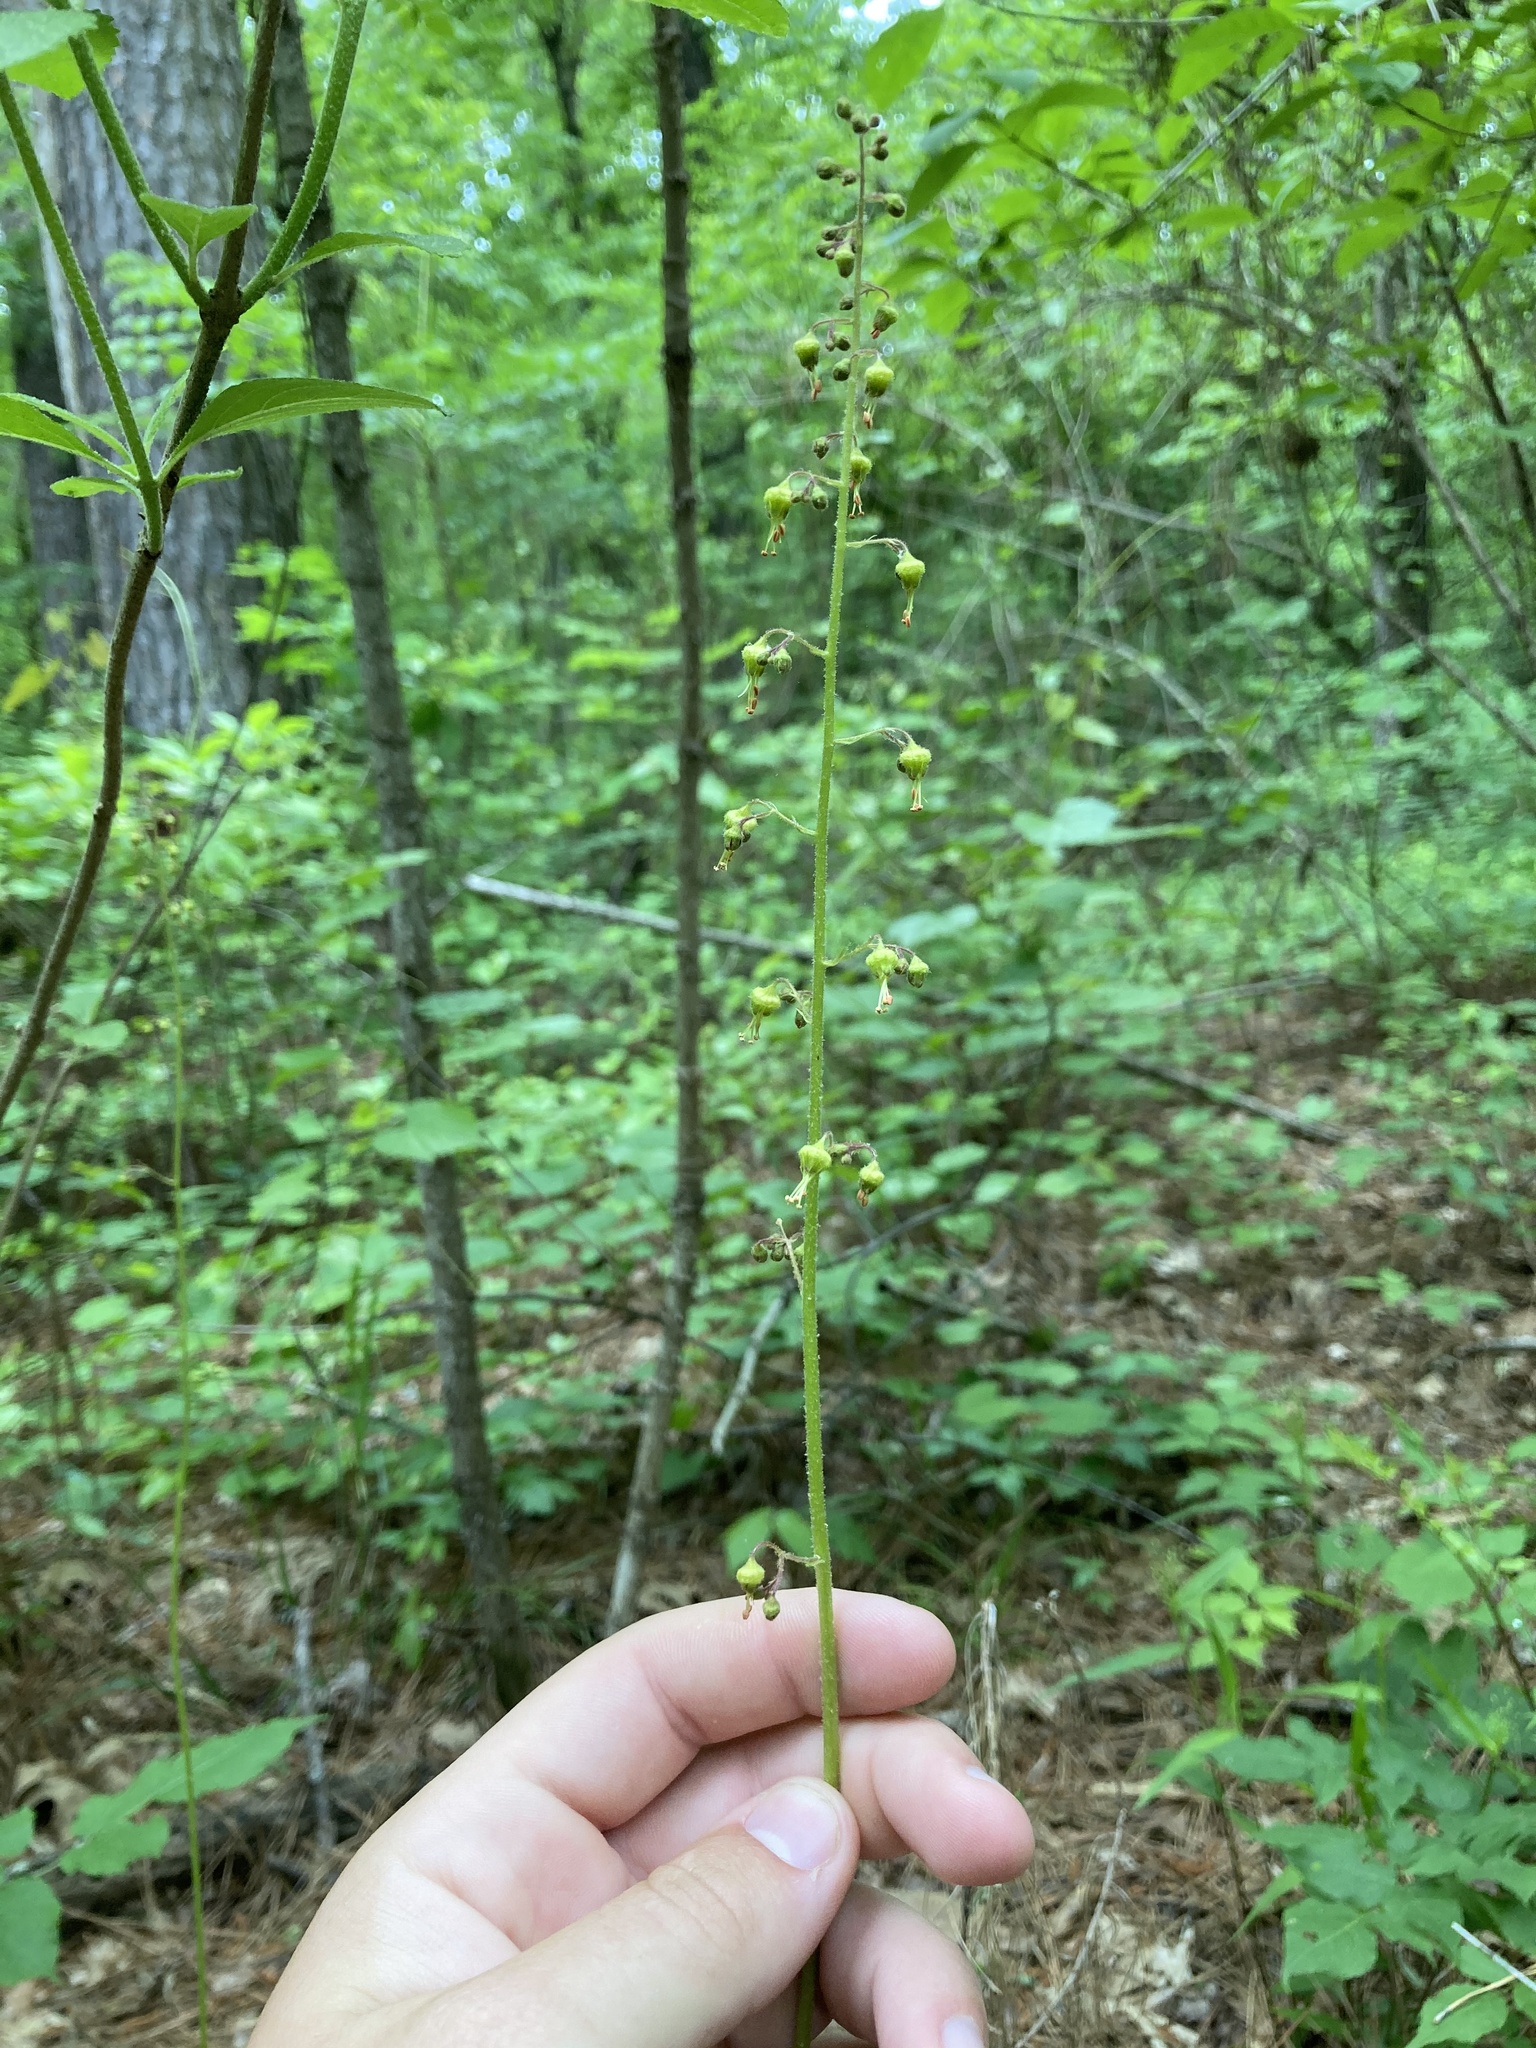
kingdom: Plantae
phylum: Tracheophyta
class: Magnoliopsida
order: Saxifragales
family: Saxifragaceae
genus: Heuchera
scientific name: Heuchera americana
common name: Alumroot
